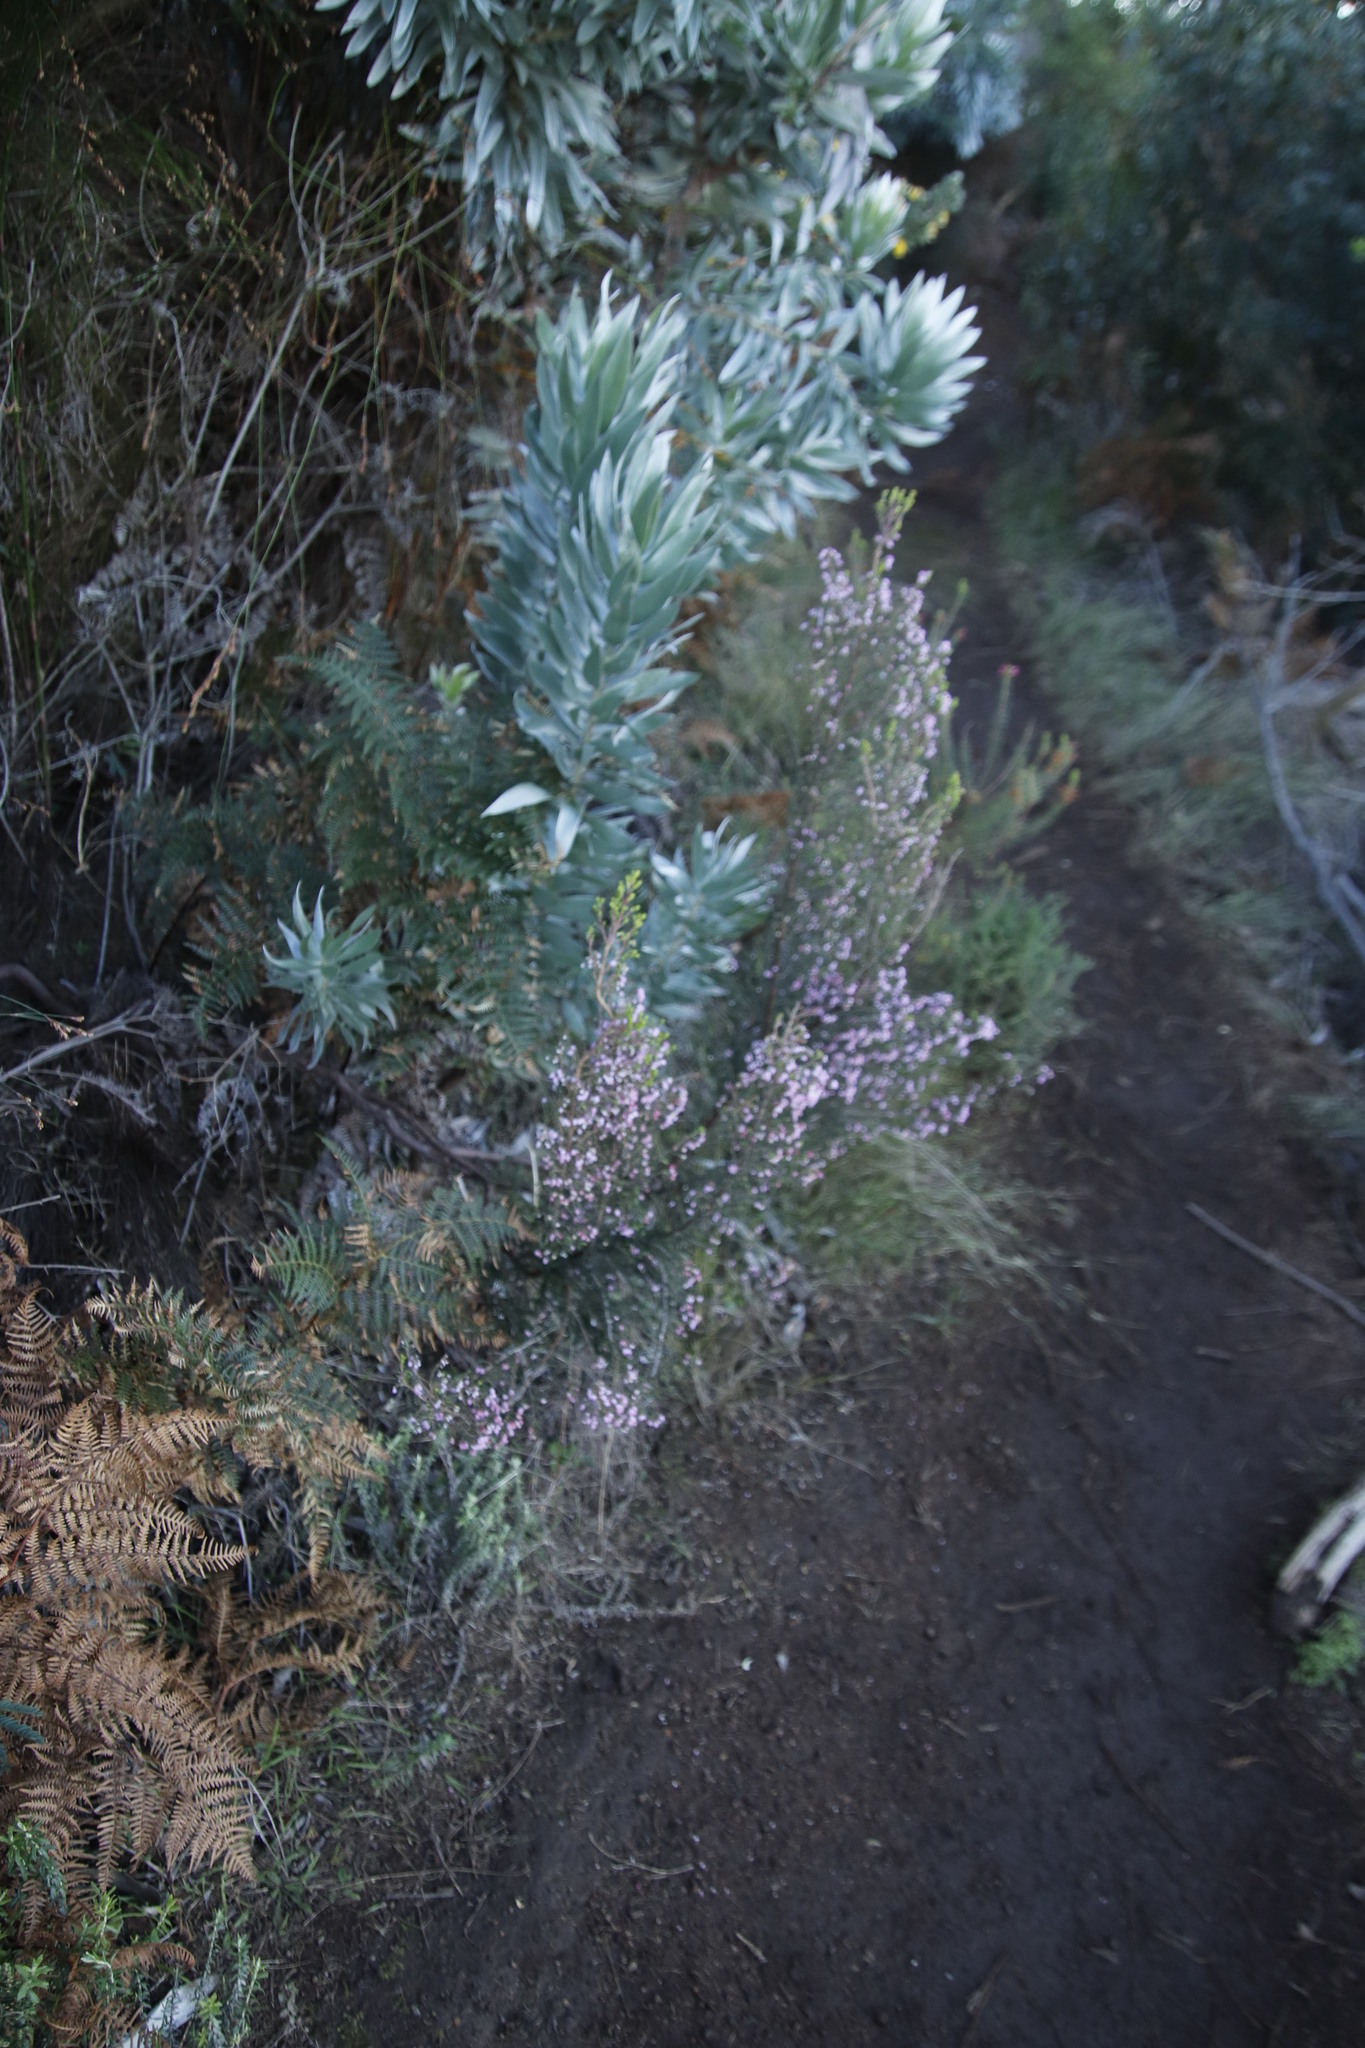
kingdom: Plantae
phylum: Tracheophyta
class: Magnoliopsida
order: Ericales
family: Ericaceae
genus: Erica
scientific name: Erica hirtiflora
